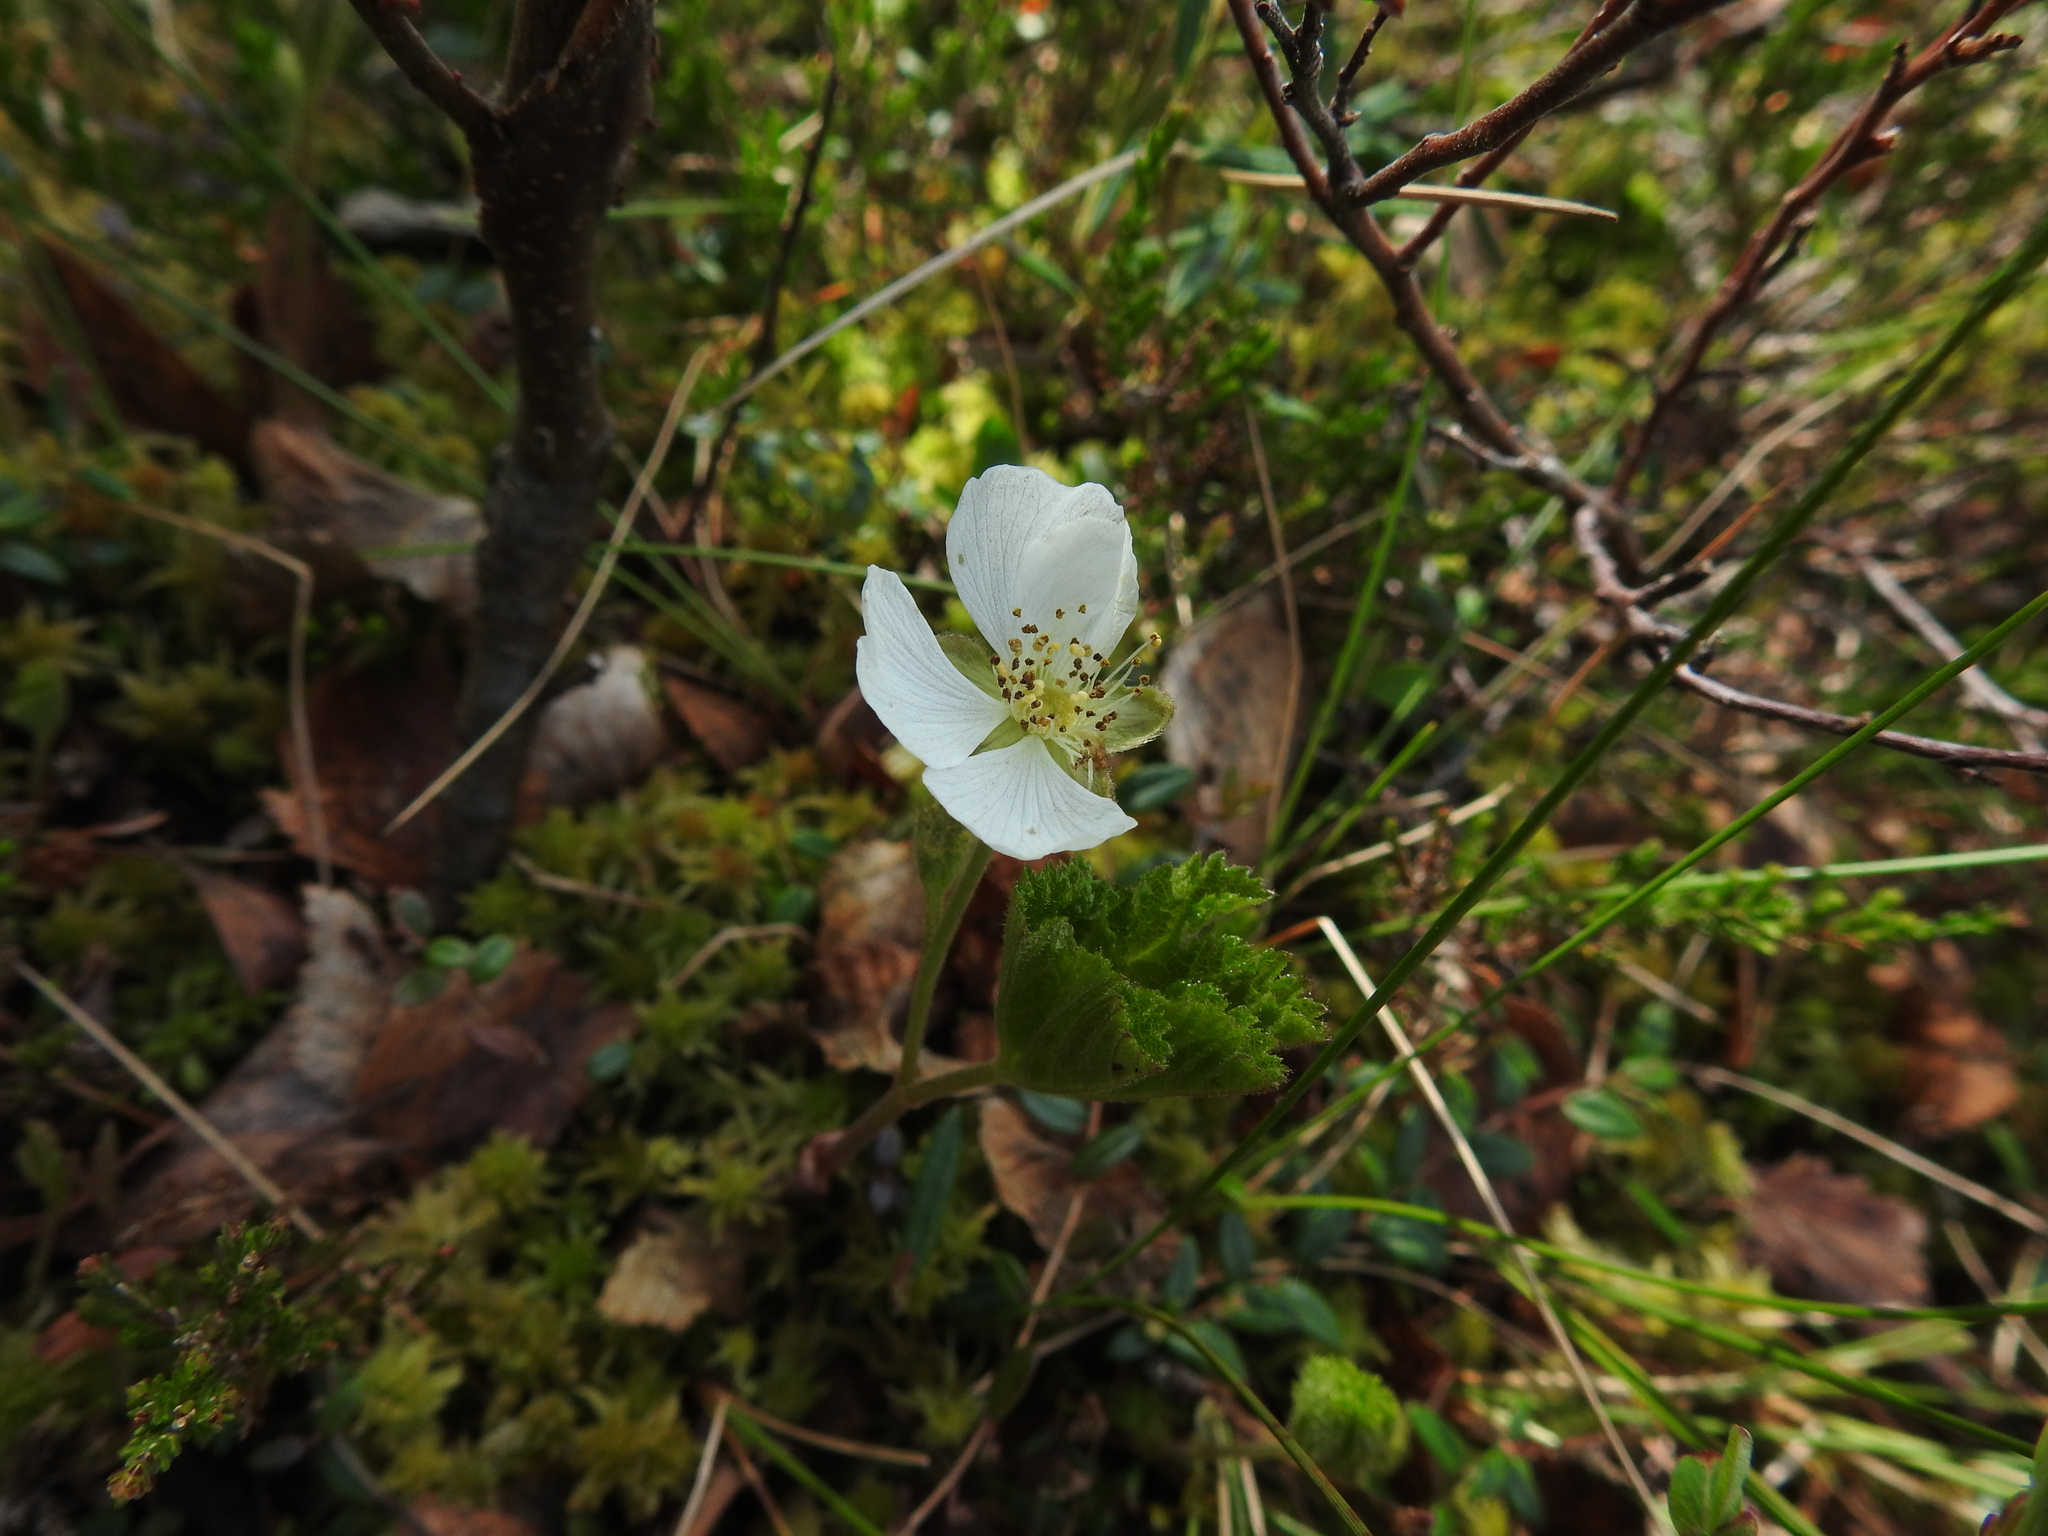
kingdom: Plantae
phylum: Tracheophyta
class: Magnoliopsida
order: Rosales
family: Rosaceae
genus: Rubus
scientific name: Rubus chamaemorus
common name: Cloudberry
